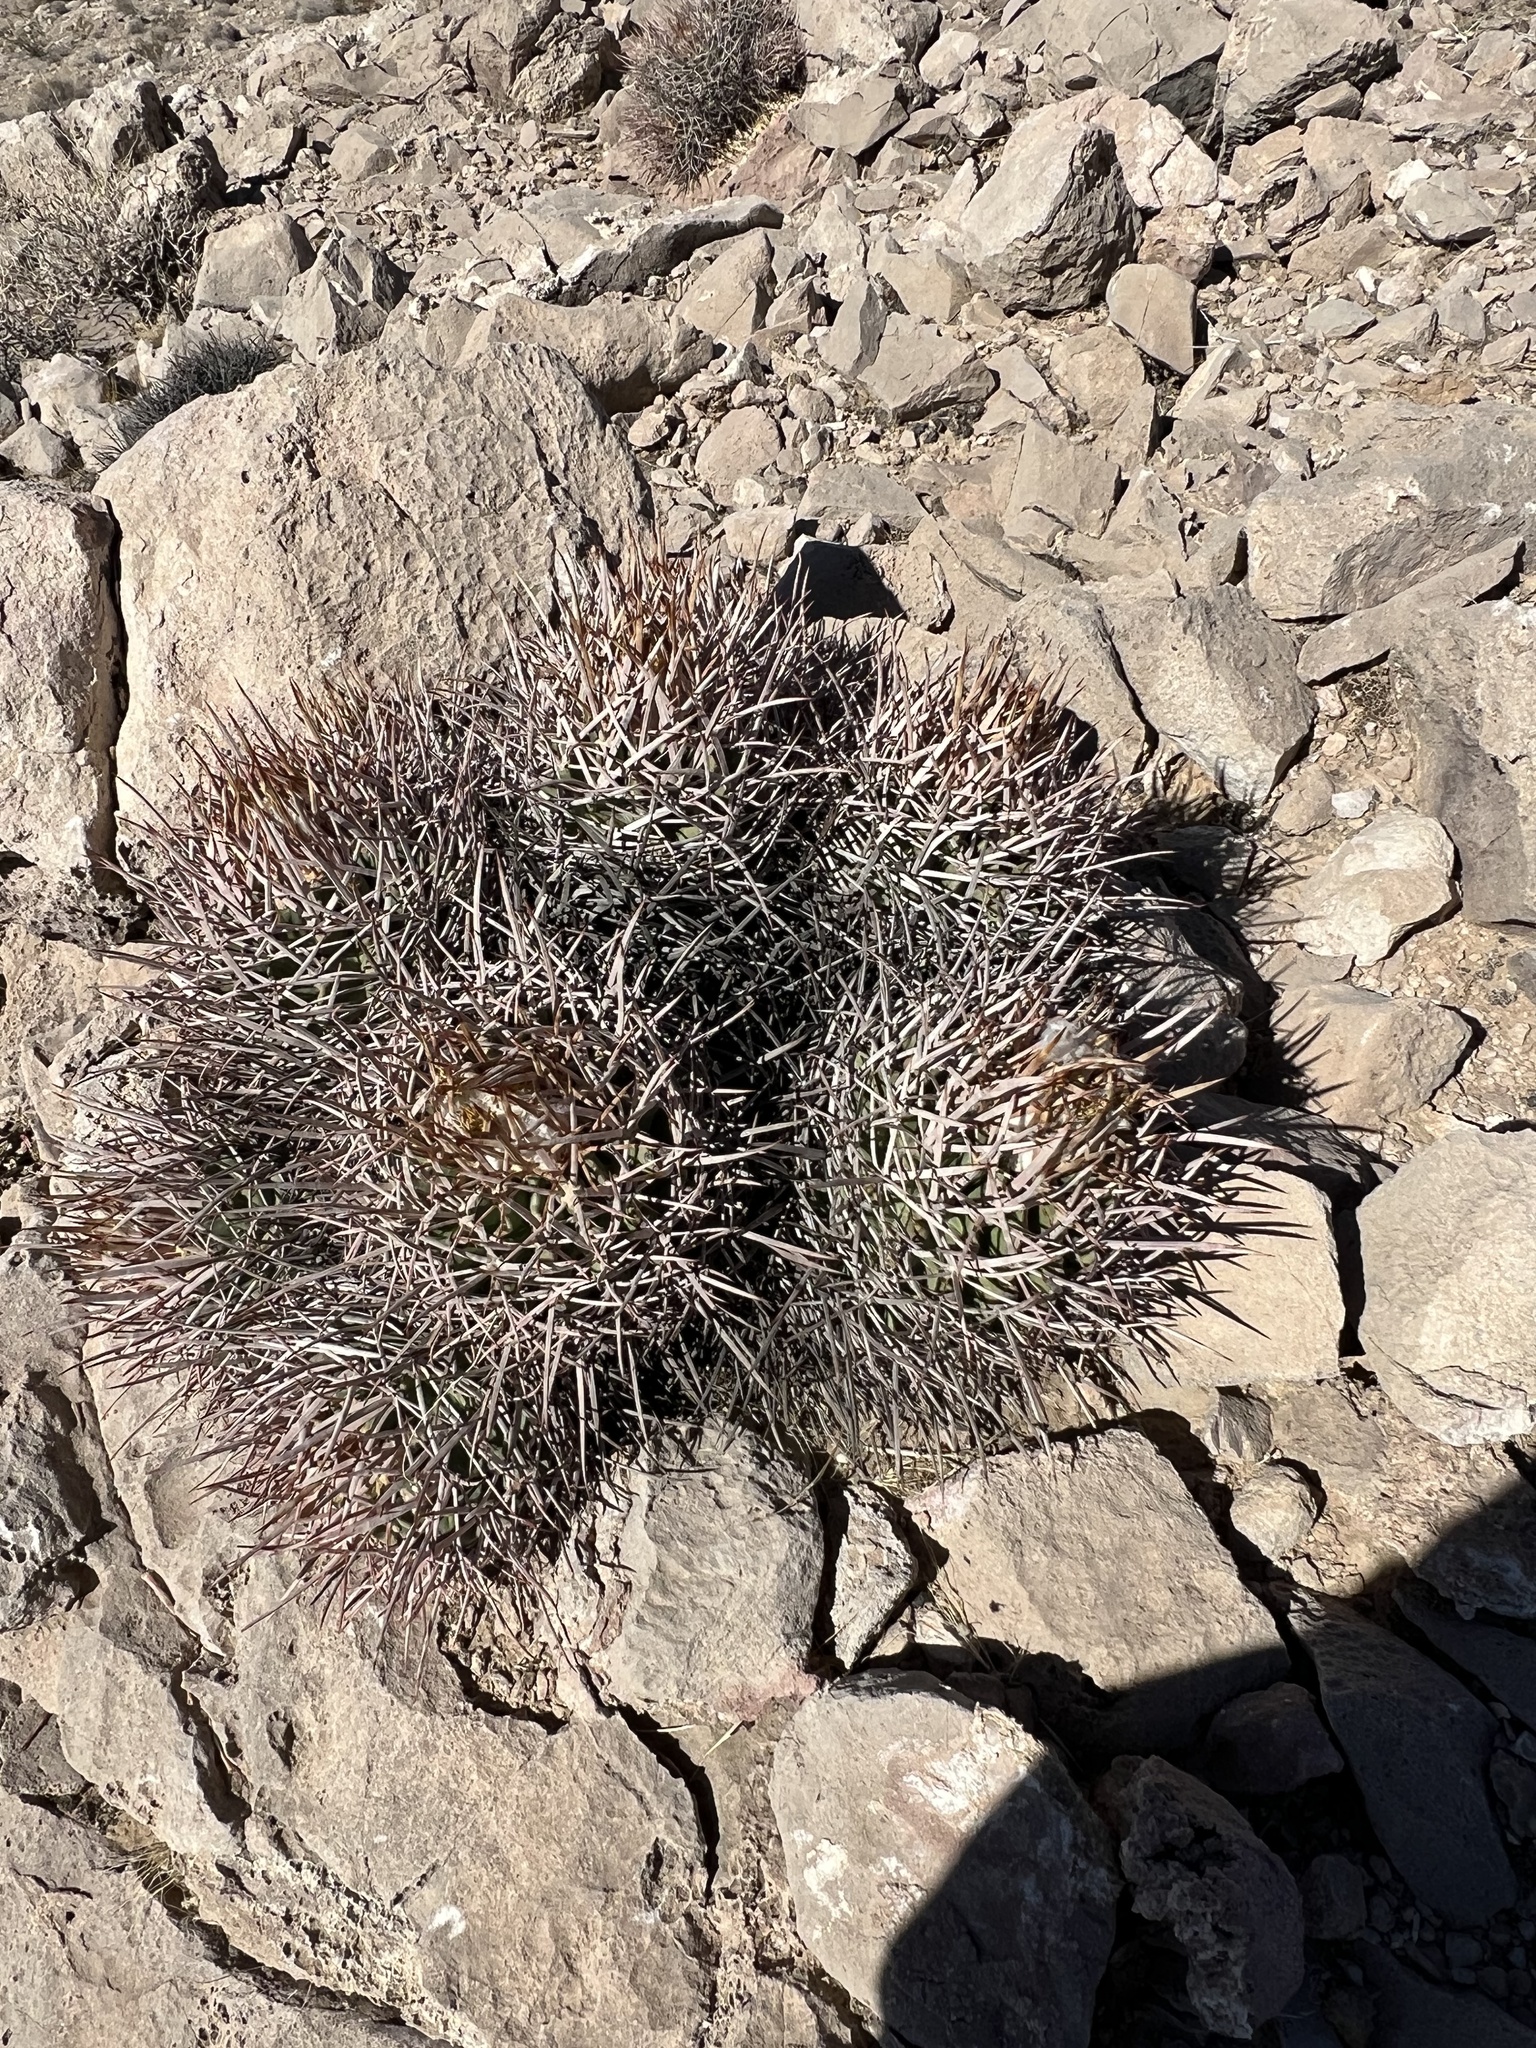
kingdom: Plantae
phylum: Tracheophyta
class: Magnoliopsida
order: Caryophyllales
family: Cactaceae
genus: Echinocactus
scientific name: Echinocactus polycephalus
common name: Cottontop cactus
